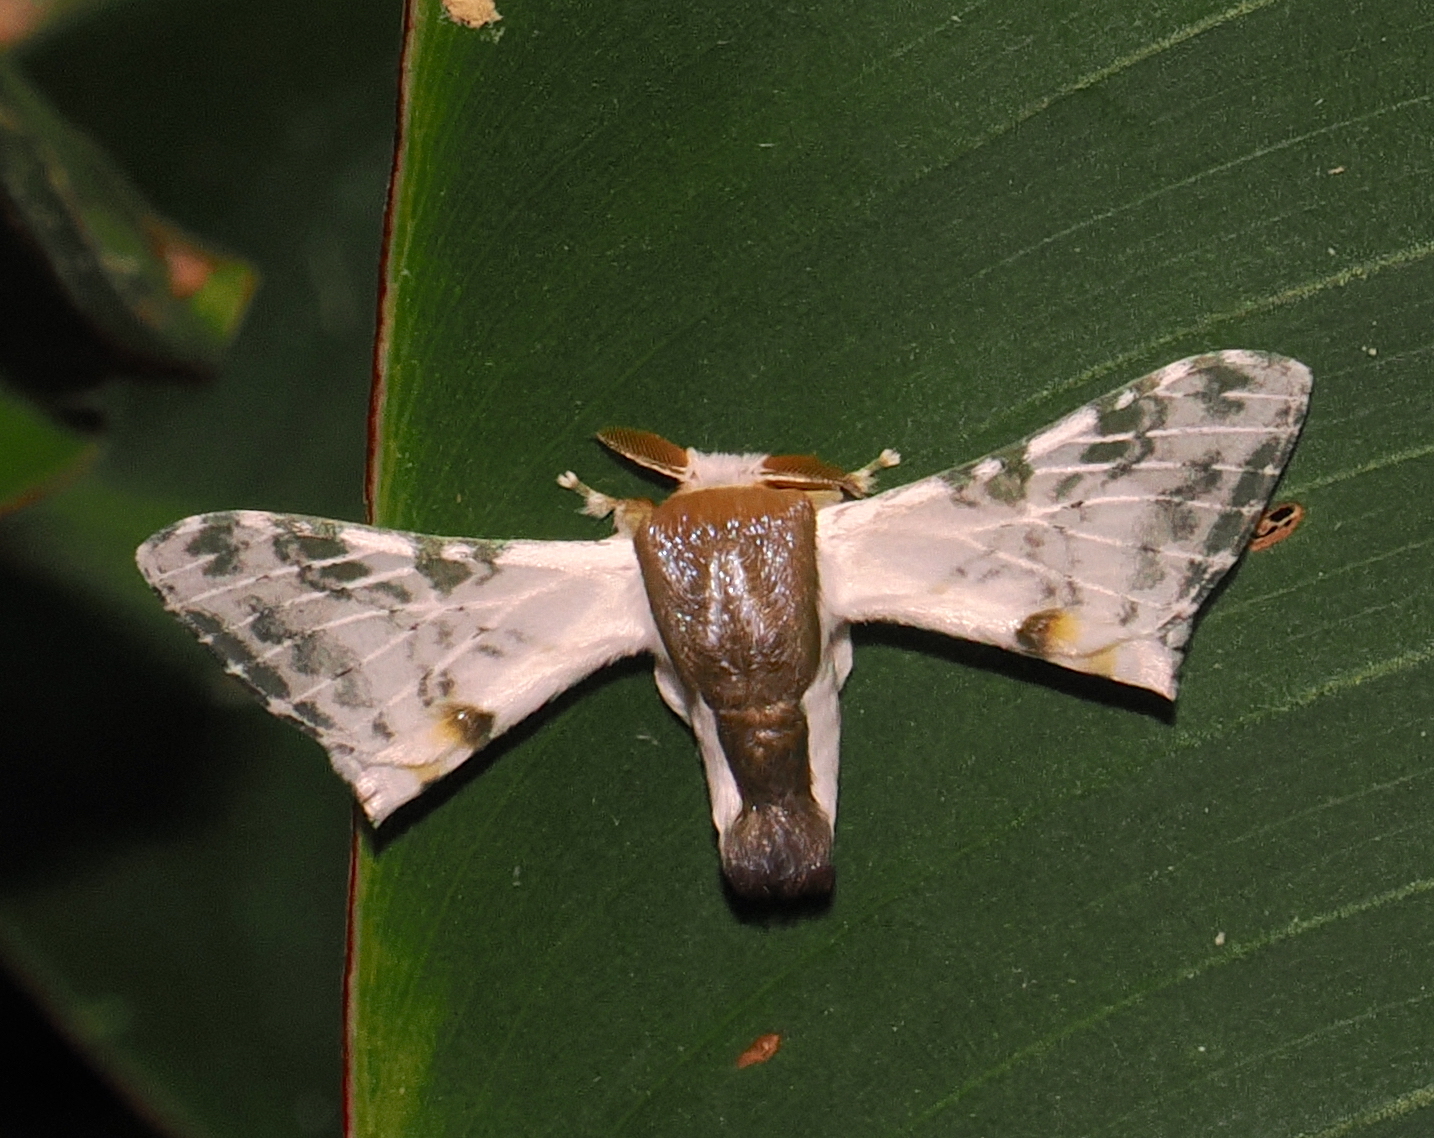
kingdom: Animalia
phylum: Arthropoda
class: Insecta
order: Lepidoptera
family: Bombycidae
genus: Colla
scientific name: Colla rhodope
